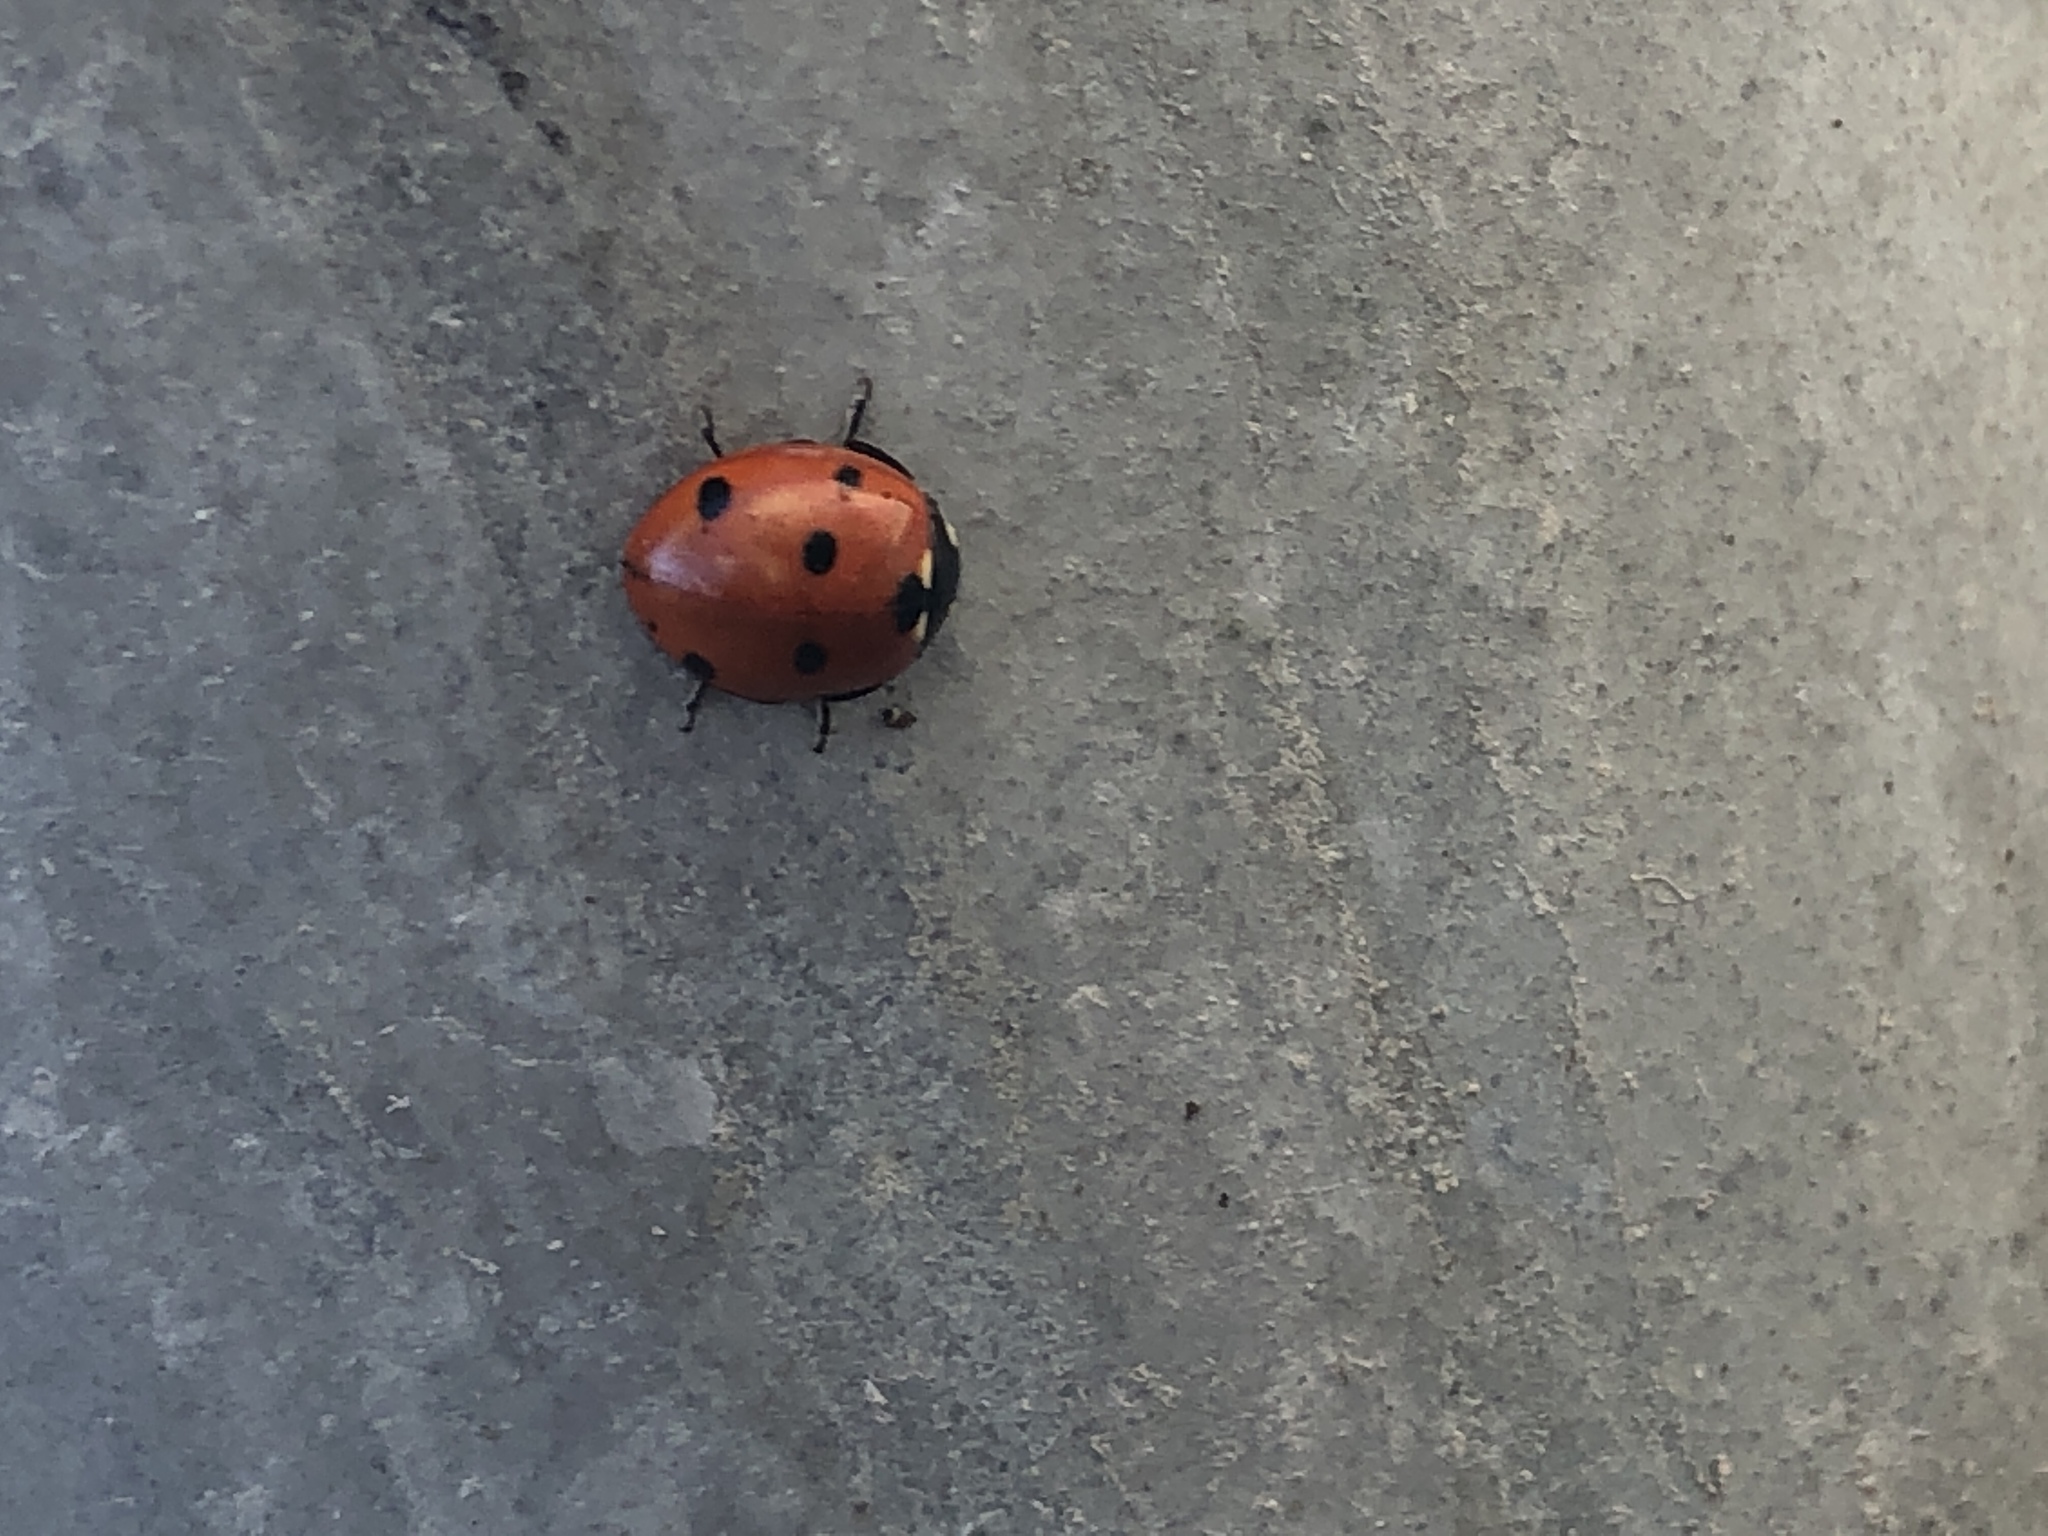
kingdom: Animalia
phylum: Arthropoda
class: Insecta
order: Coleoptera
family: Coccinellidae
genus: Coccinella
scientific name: Coccinella septempunctata
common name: Sevenspotted lady beetle
